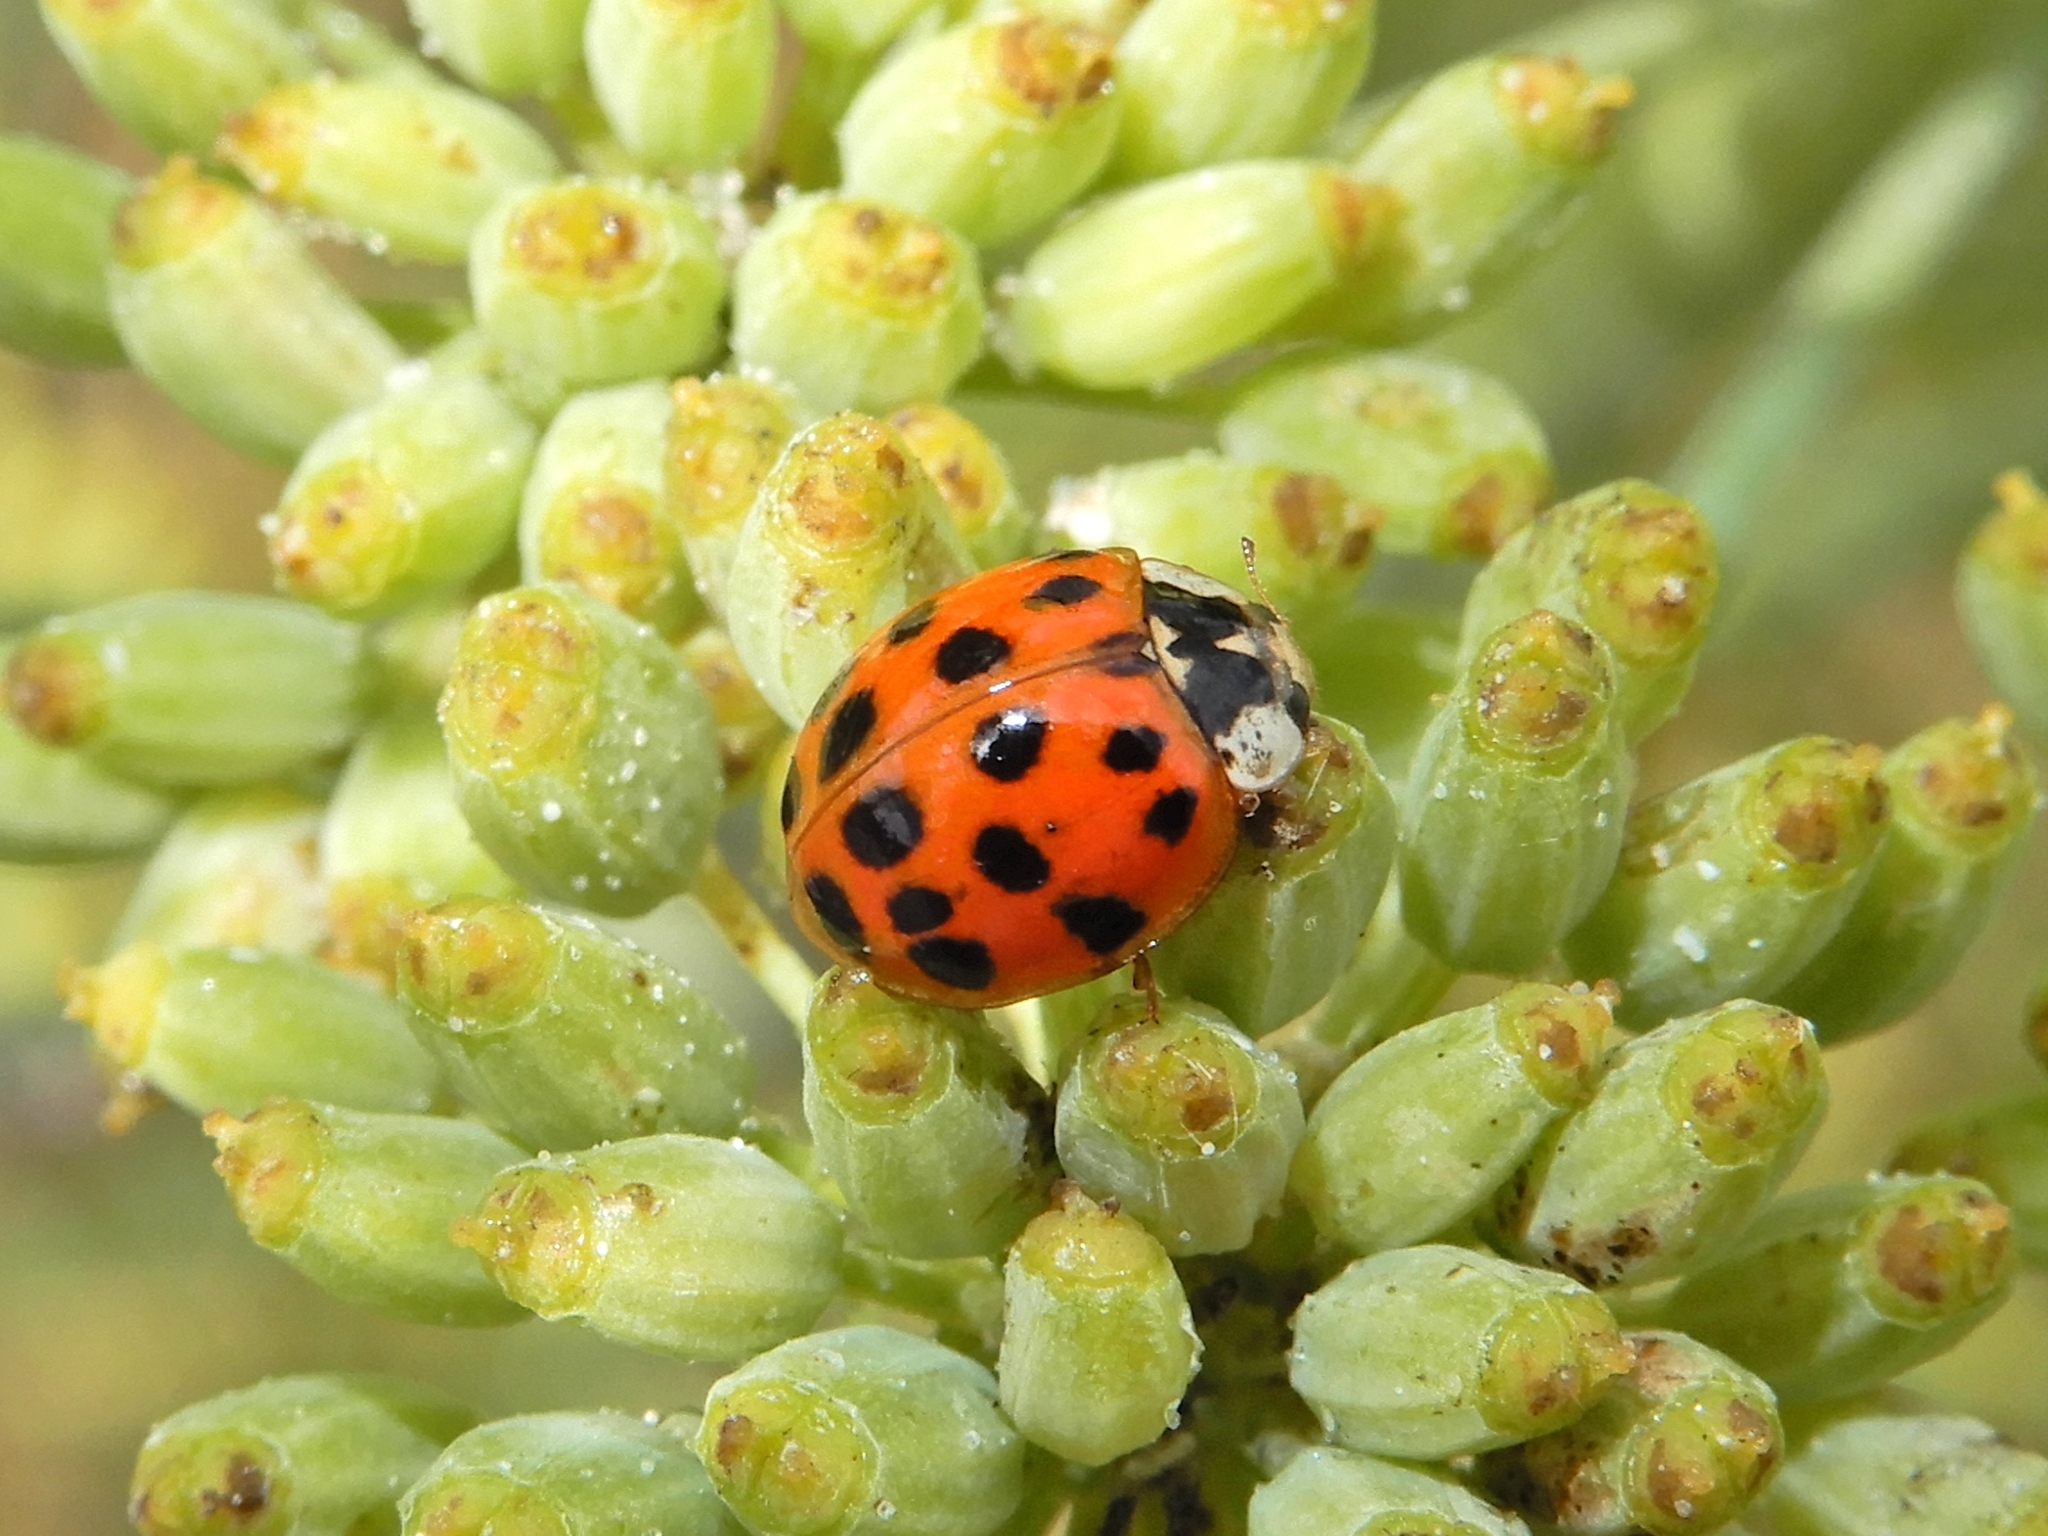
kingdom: Animalia
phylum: Arthropoda
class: Insecta
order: Coleoptera
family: Coccinellidae
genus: Harmonia
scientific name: Harmonia axyridis
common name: Harlequin ladybird
